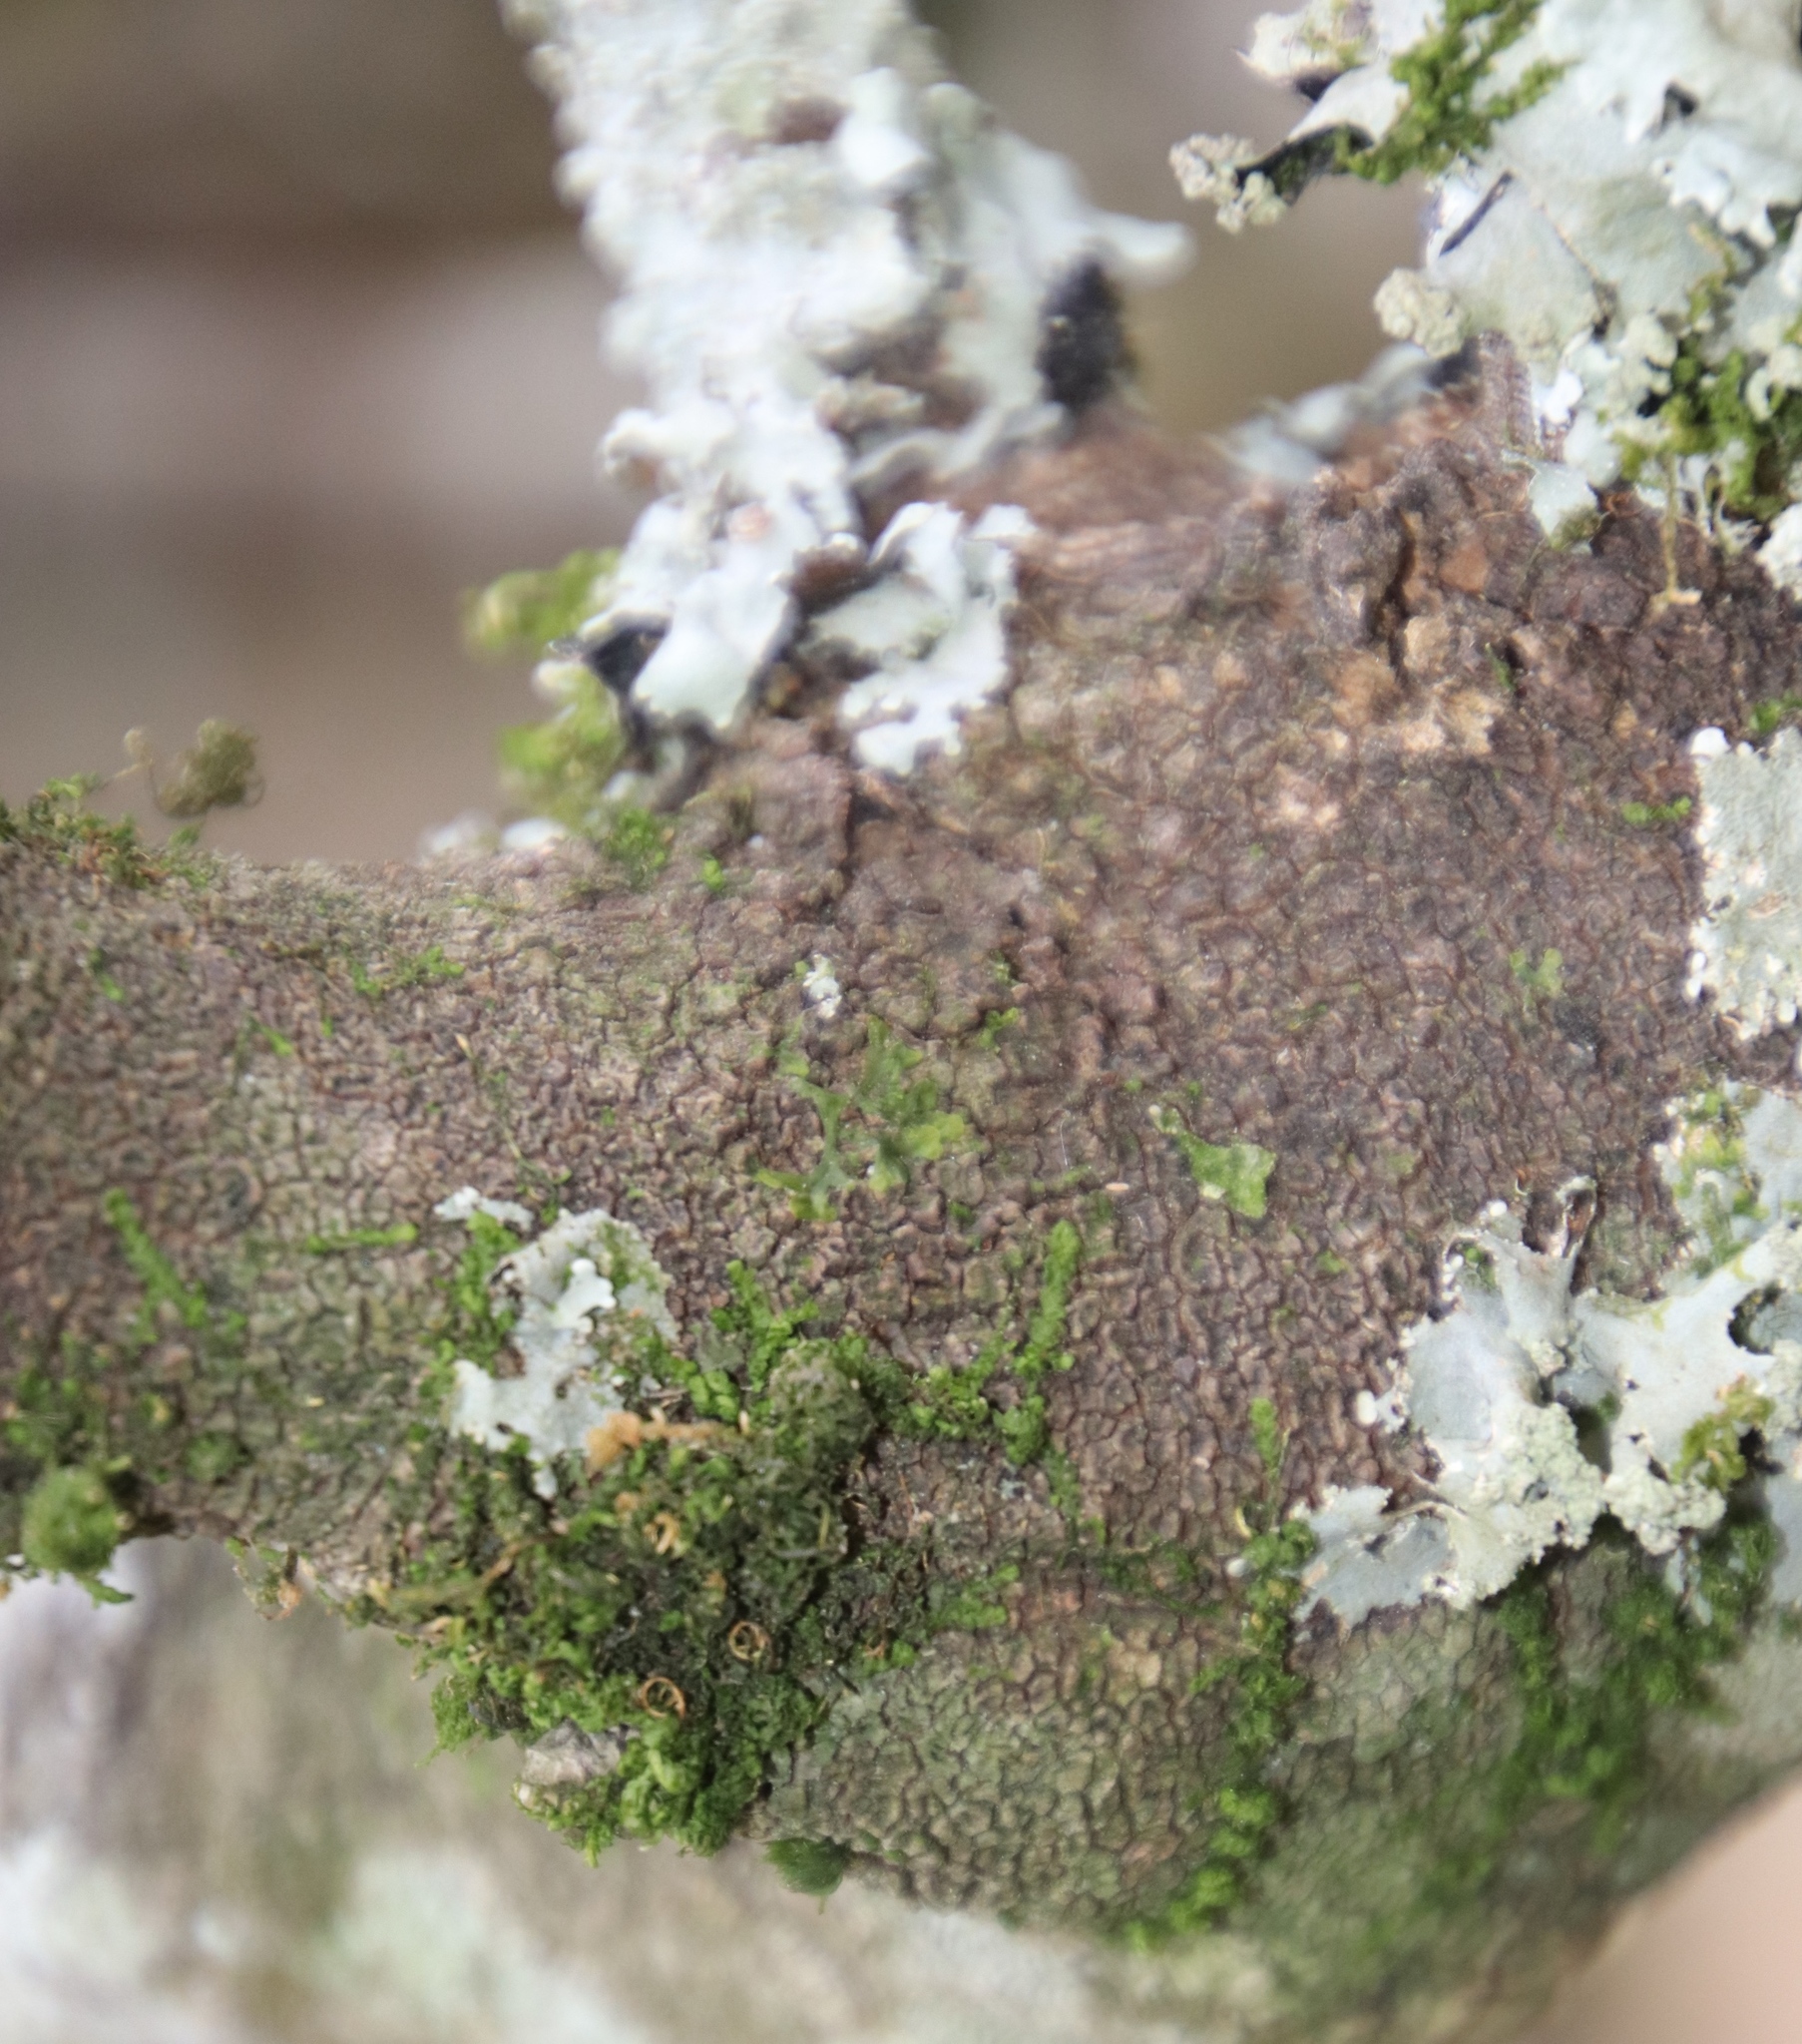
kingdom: Plantae
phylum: Bryophyta
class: Bryopsida
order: Hypnales
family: Neckeraceae
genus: Leptodon
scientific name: Leptodon smithii
